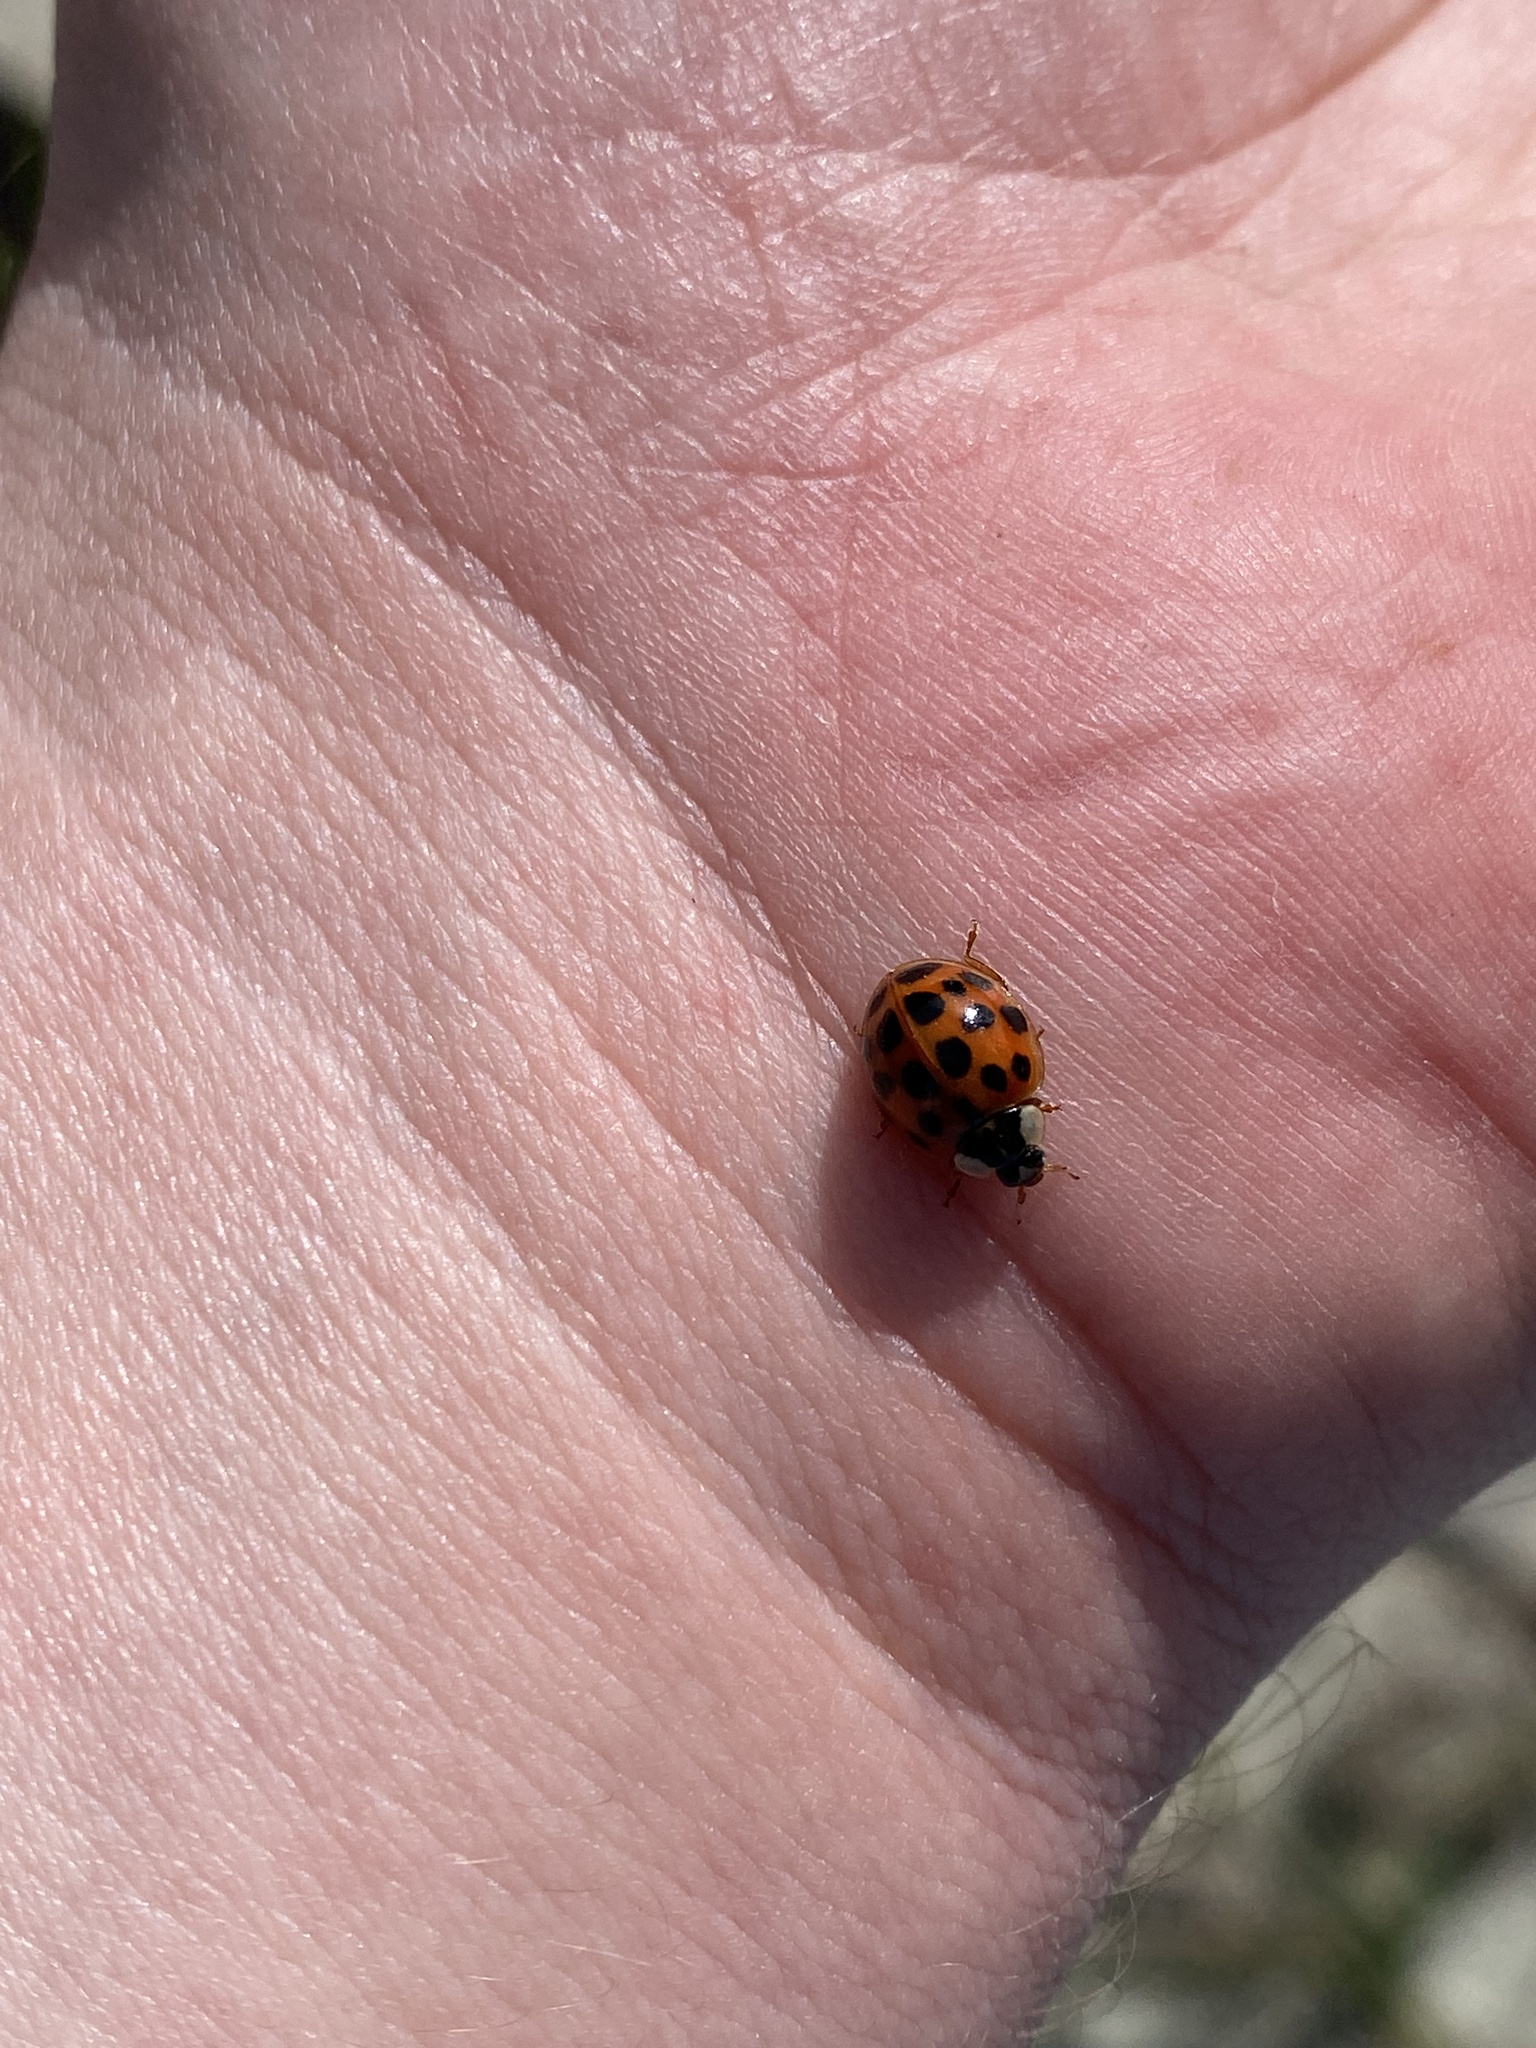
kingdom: Animalia
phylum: Arthropoda
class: Insecta
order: Coleoptera
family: Coccinellidae
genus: Harmonia
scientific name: Harmonia axyridis
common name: Harlequin ladybird
